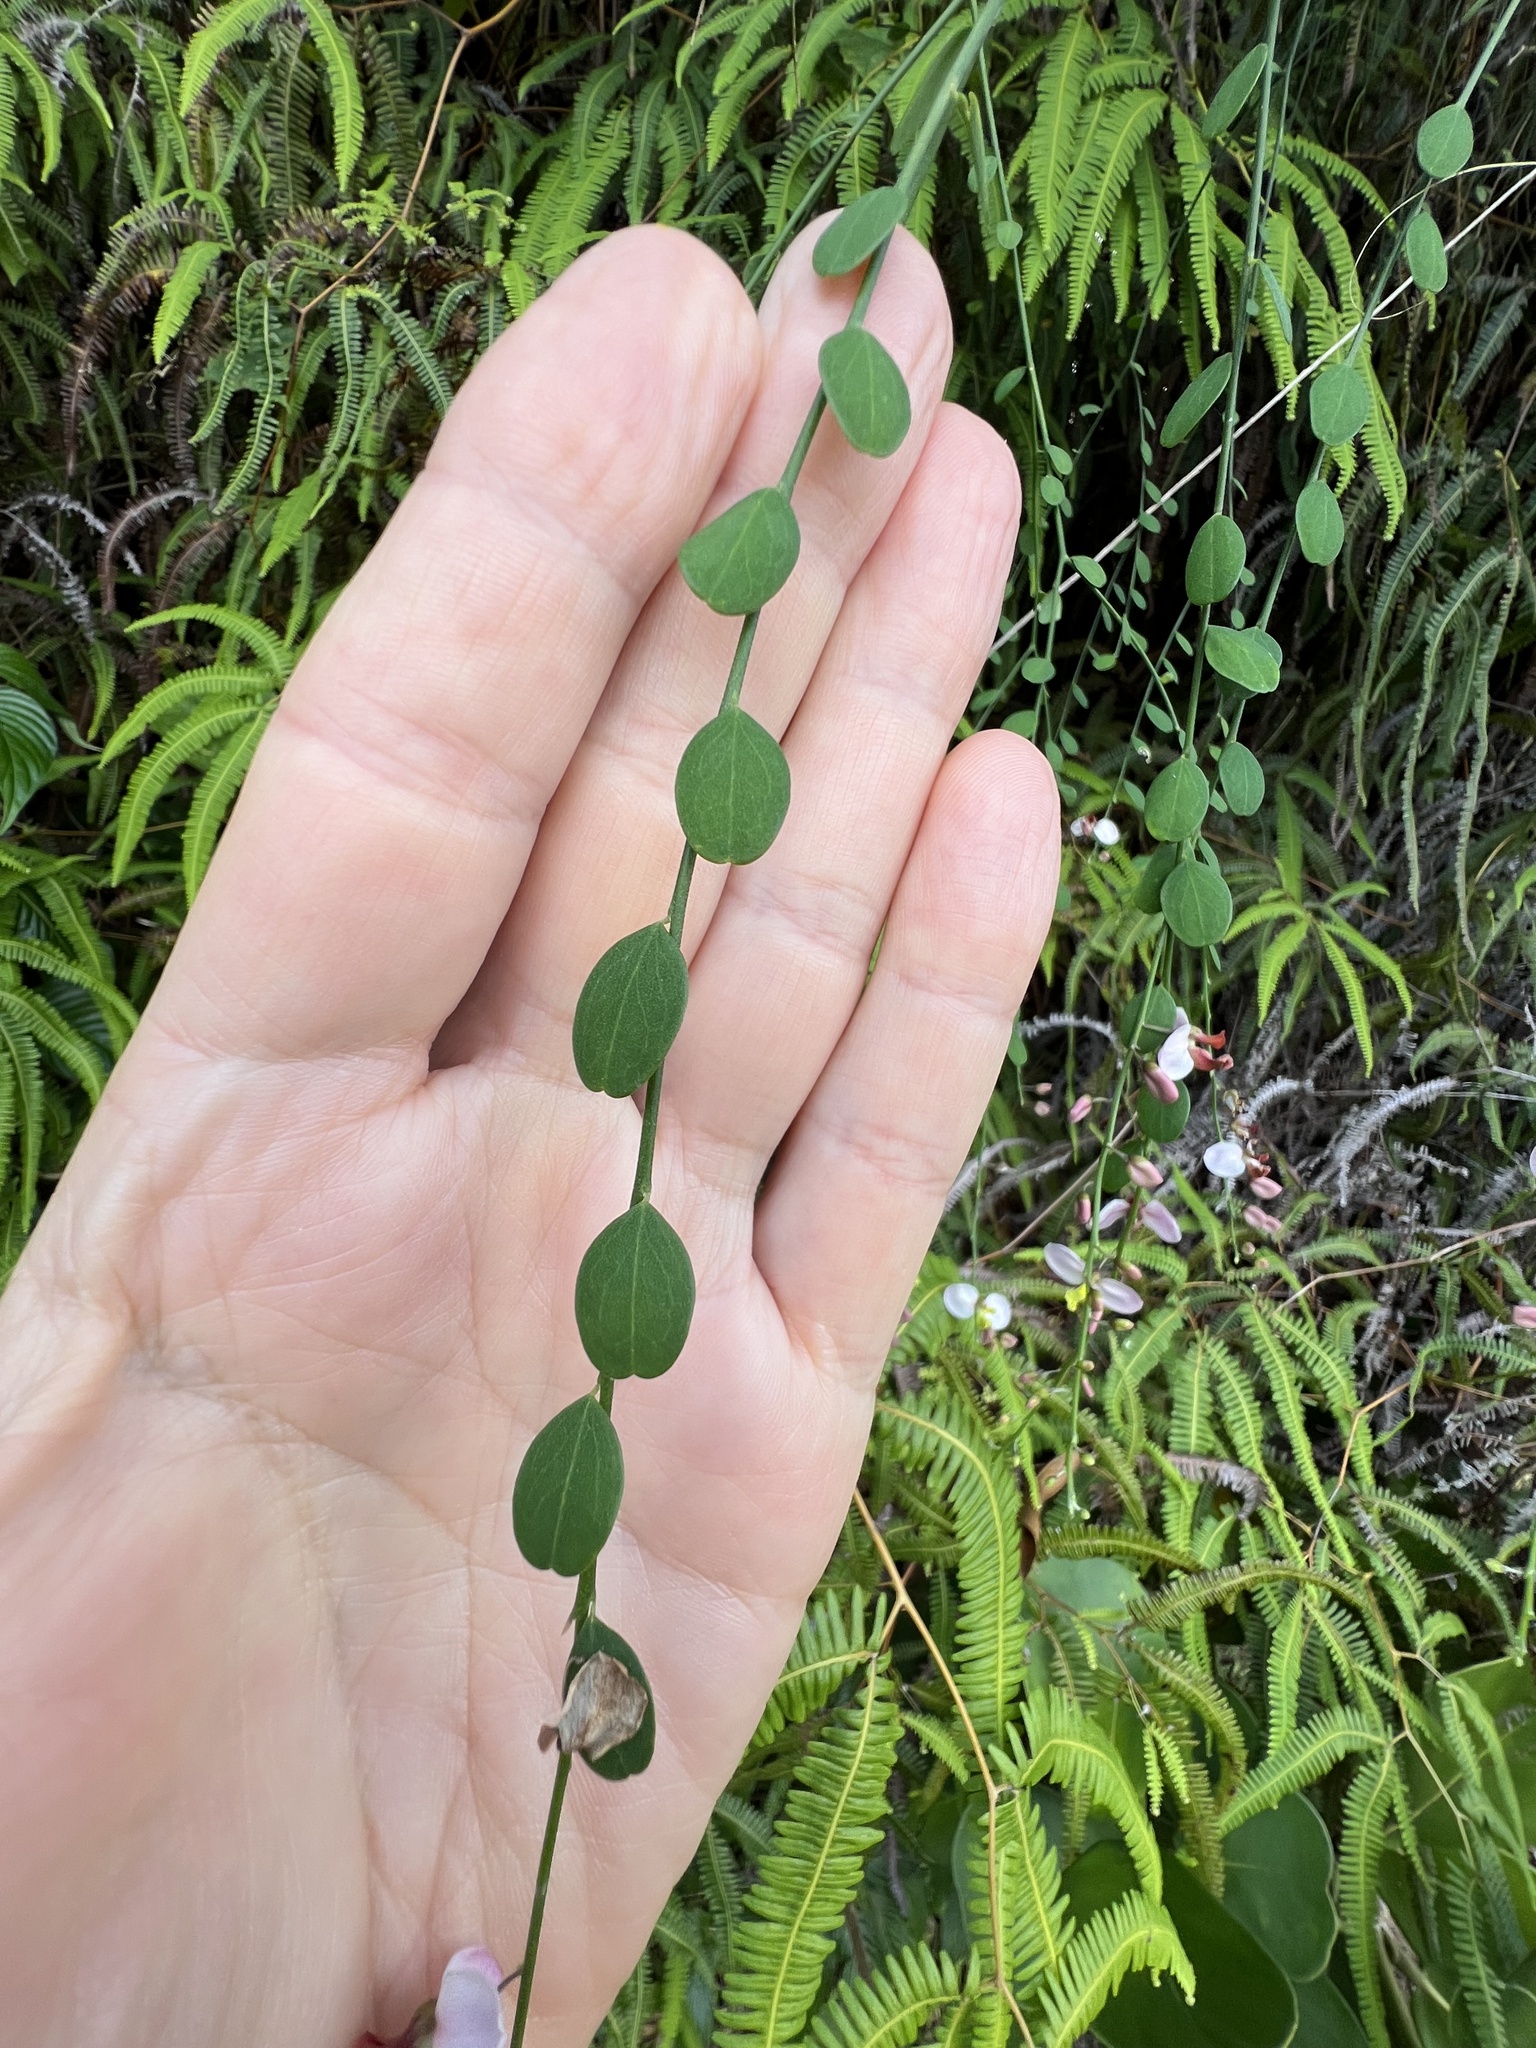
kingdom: Plantae
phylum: Tracheophyta
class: Magnoliopsida
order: Fabales
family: Polygalaceae
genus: Securidaca
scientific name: Securidaca virgata
